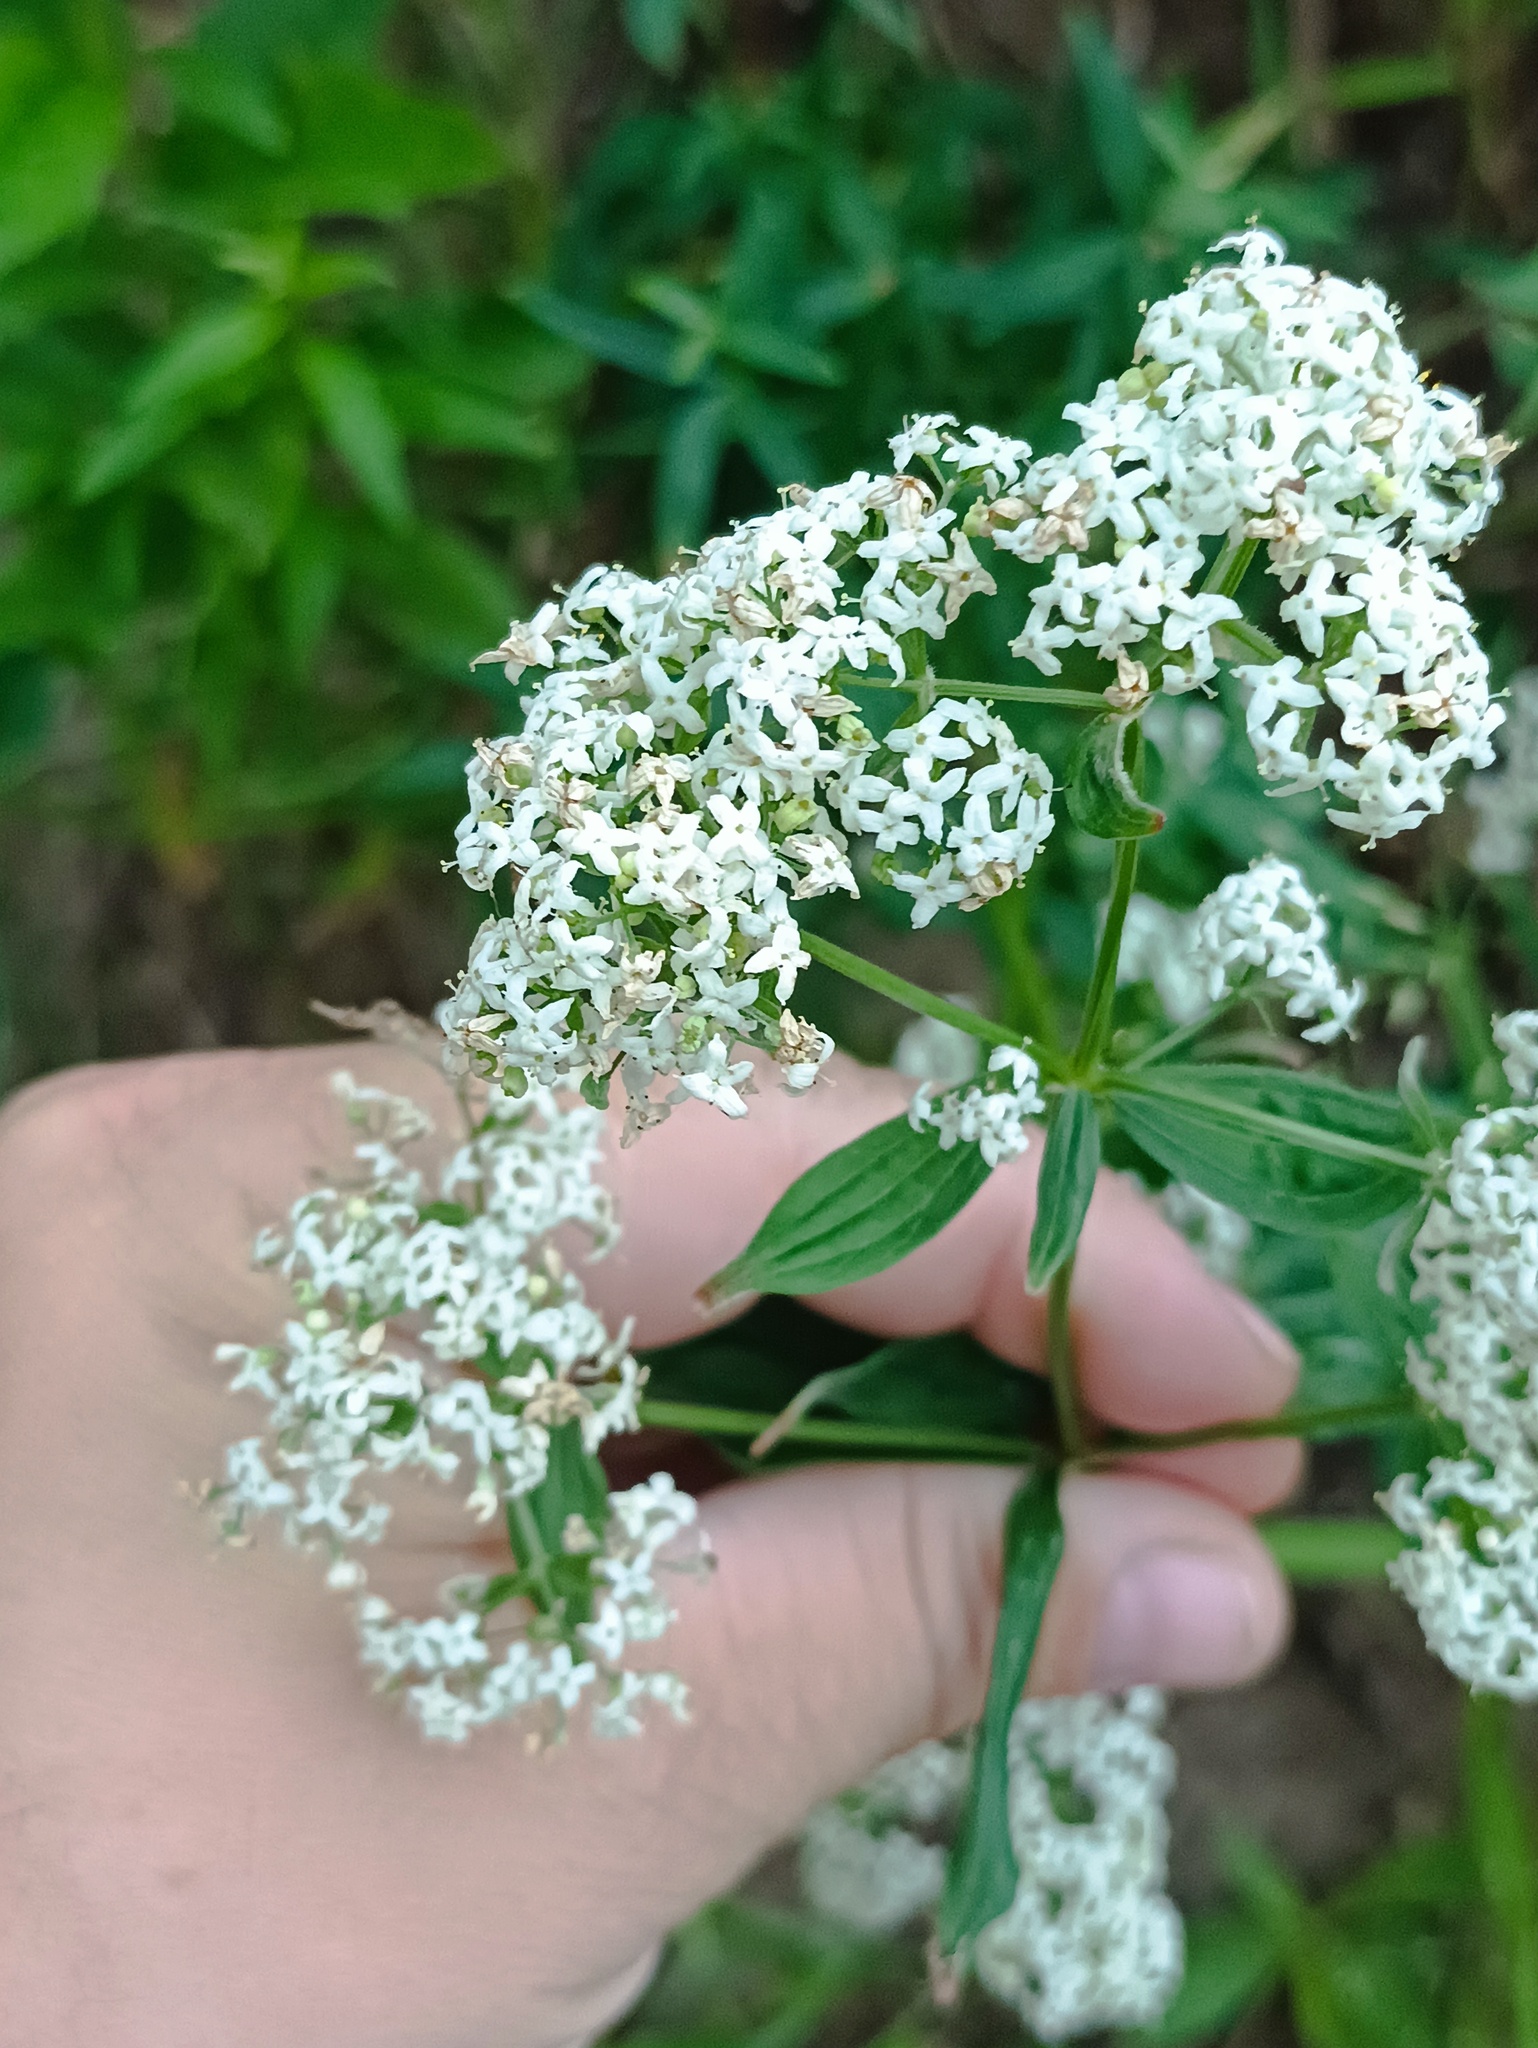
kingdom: Plantae
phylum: Tracheophyta
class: Magnoliopsida
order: Gentianales
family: Rubiaceae
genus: Galium
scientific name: Galium rubioides
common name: European bedstraw
